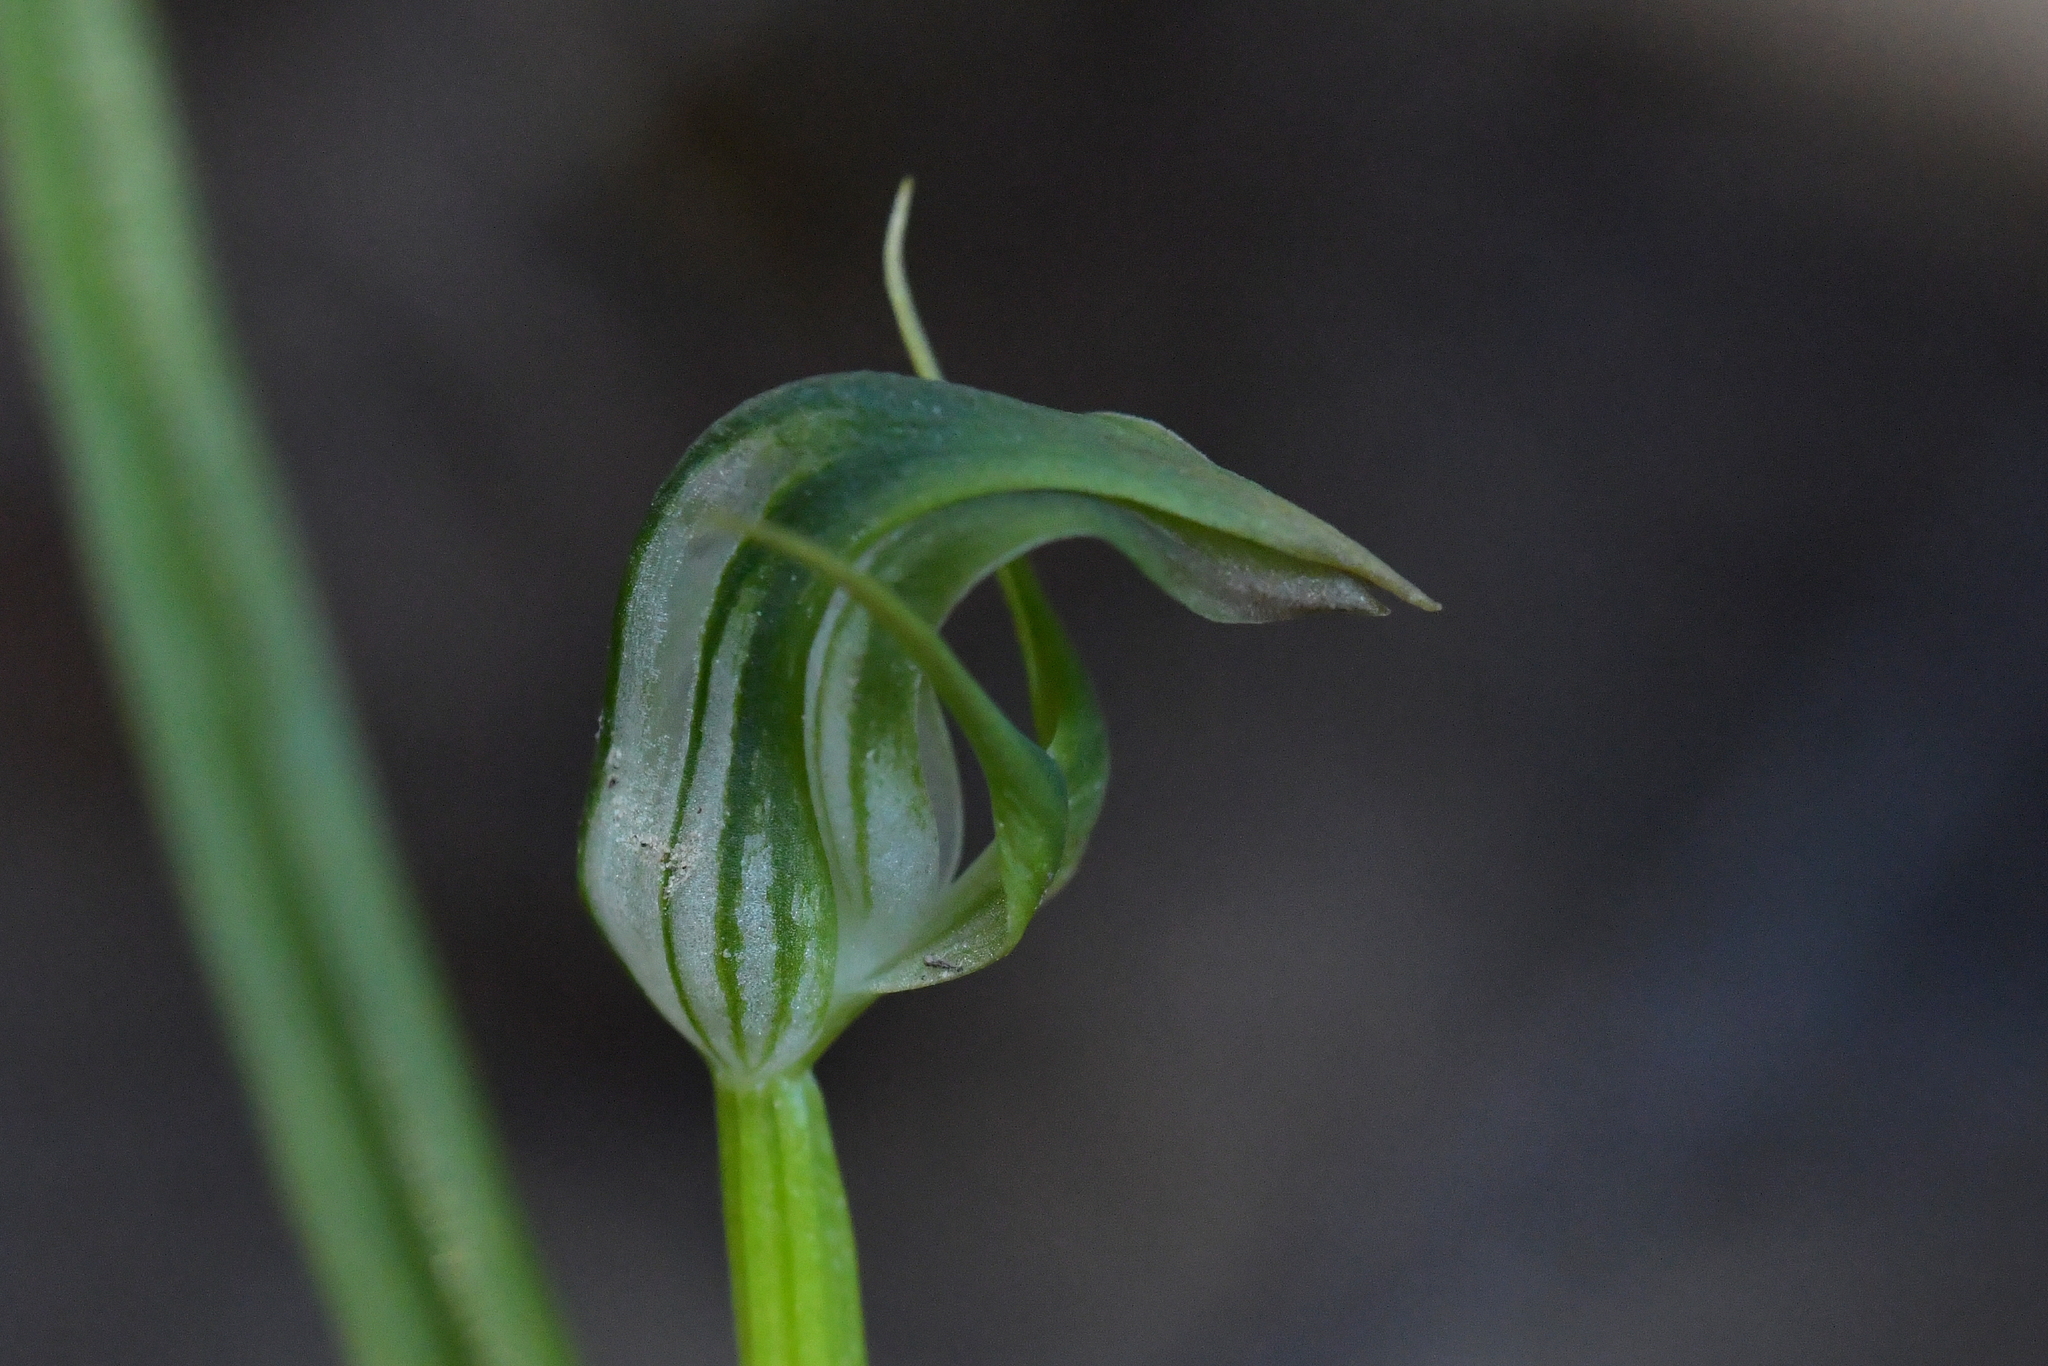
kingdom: Plantae
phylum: Tracheophyta
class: Liliopsida
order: Asparagales
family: Orchidaceae
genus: Pterostylis
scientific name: Pterostylis graminea
